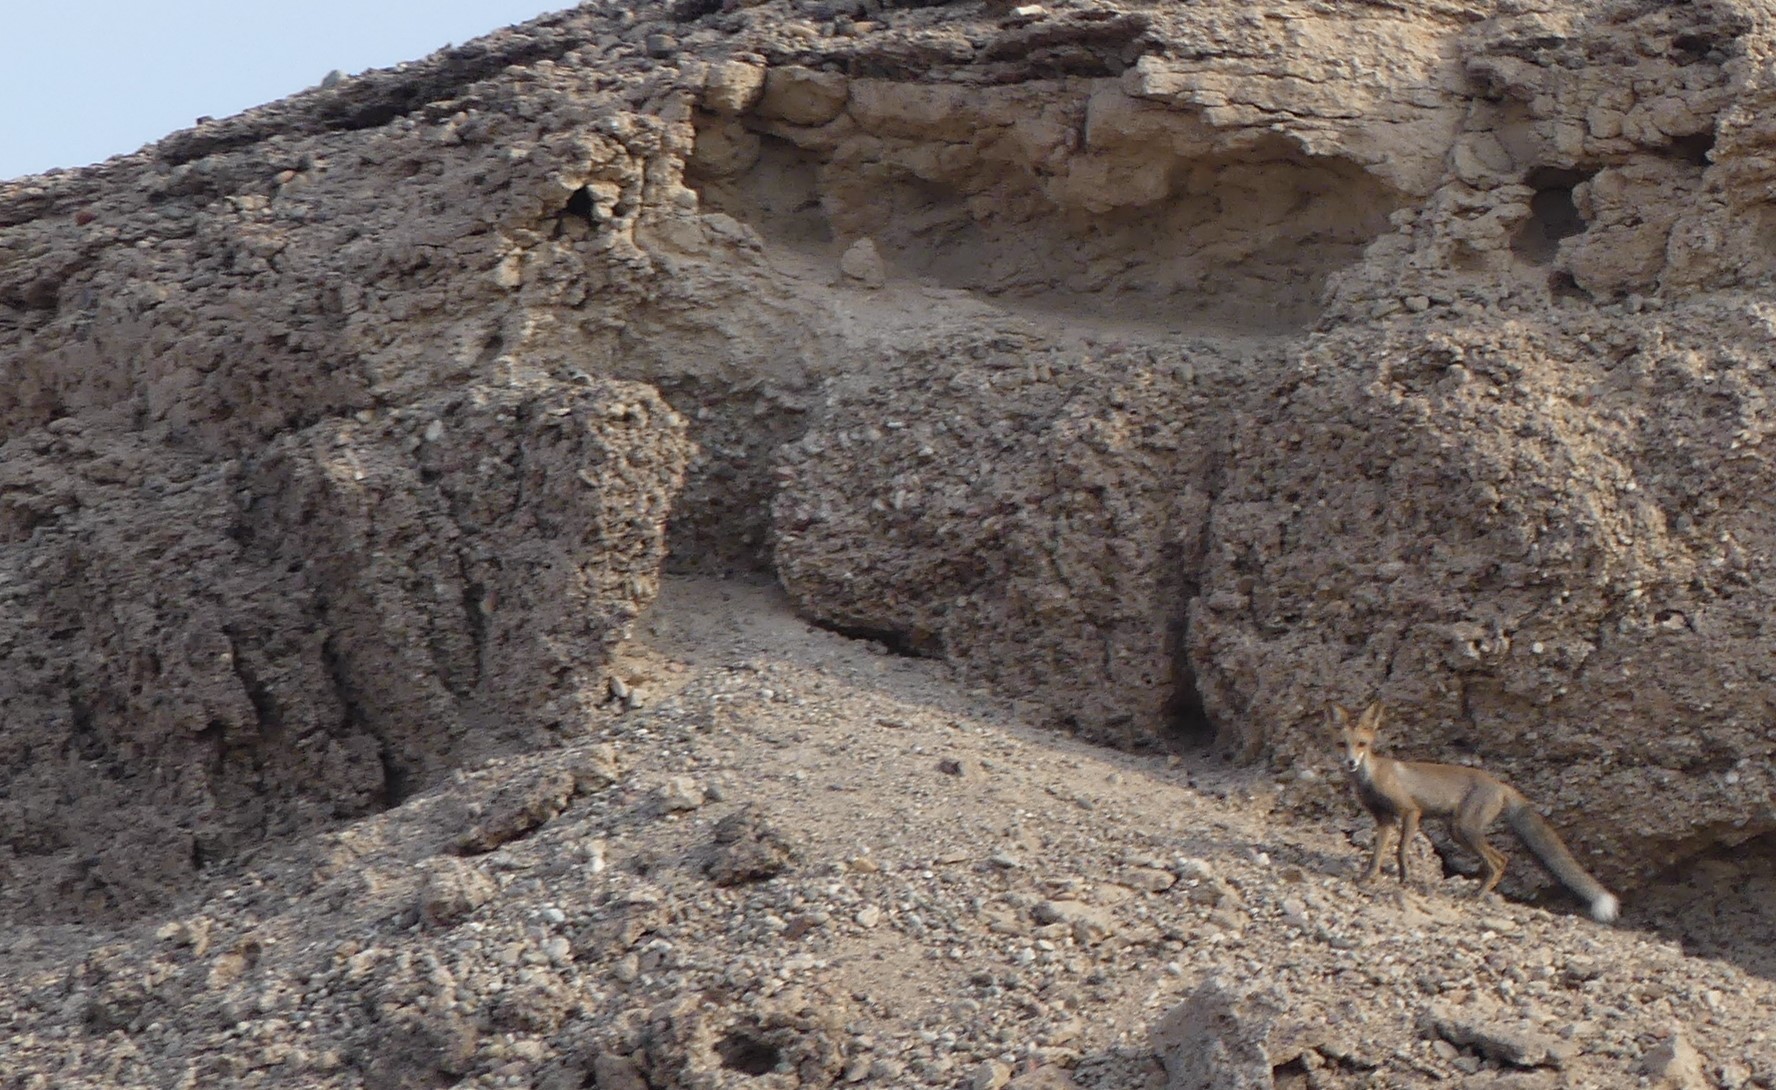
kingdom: Animalia
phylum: Chordata
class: Mammalia
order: Carnivora
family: Canidae
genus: Vulpes
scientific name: Vulpes vulpes
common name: Red fox
